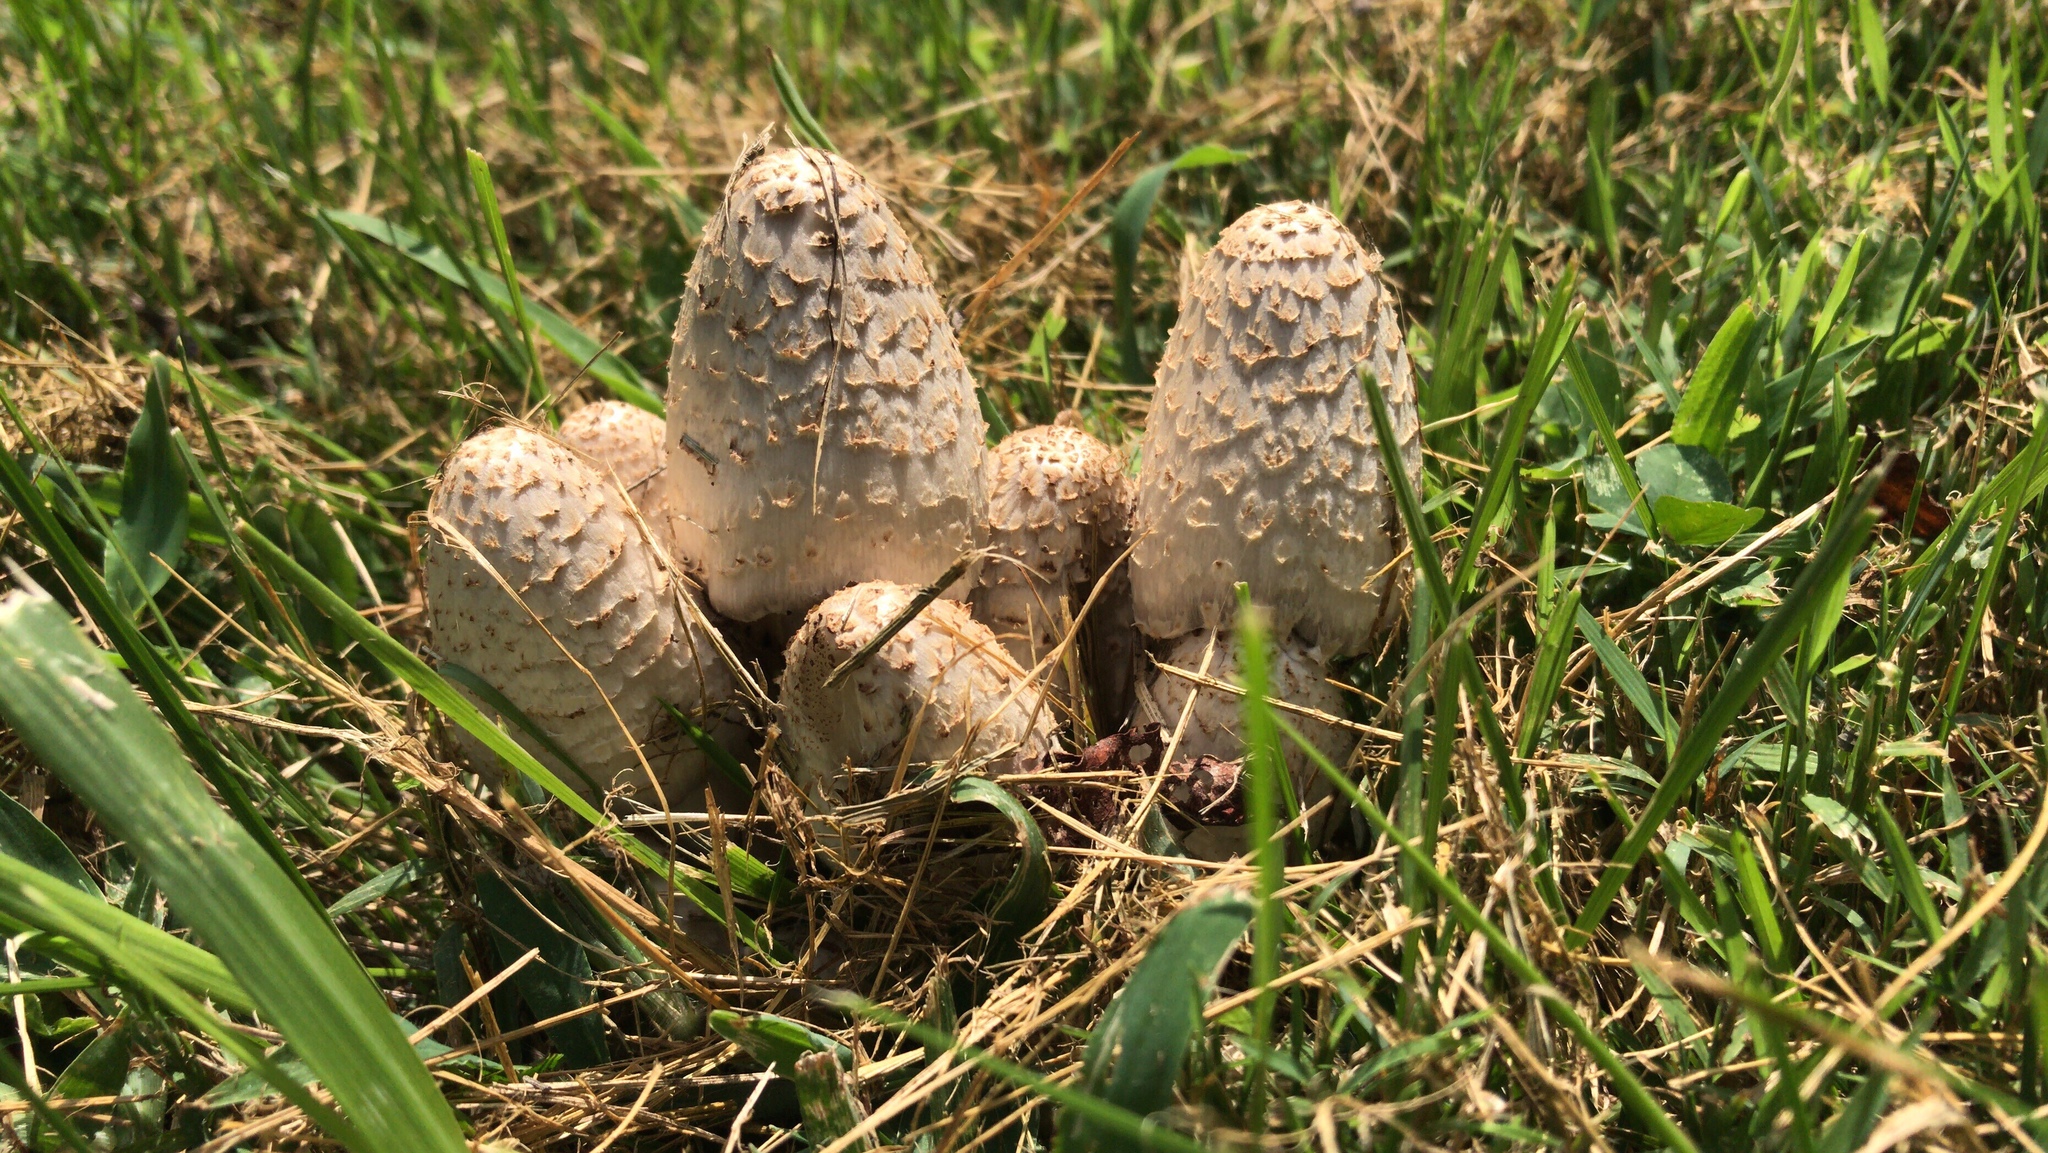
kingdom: Fungi
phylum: Basidiomycota
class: Agaricomycetes
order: Agaricales
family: Psathyrellaceae
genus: Coprinopsis
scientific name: Coprinopsis variegata
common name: Scaly ink cap
